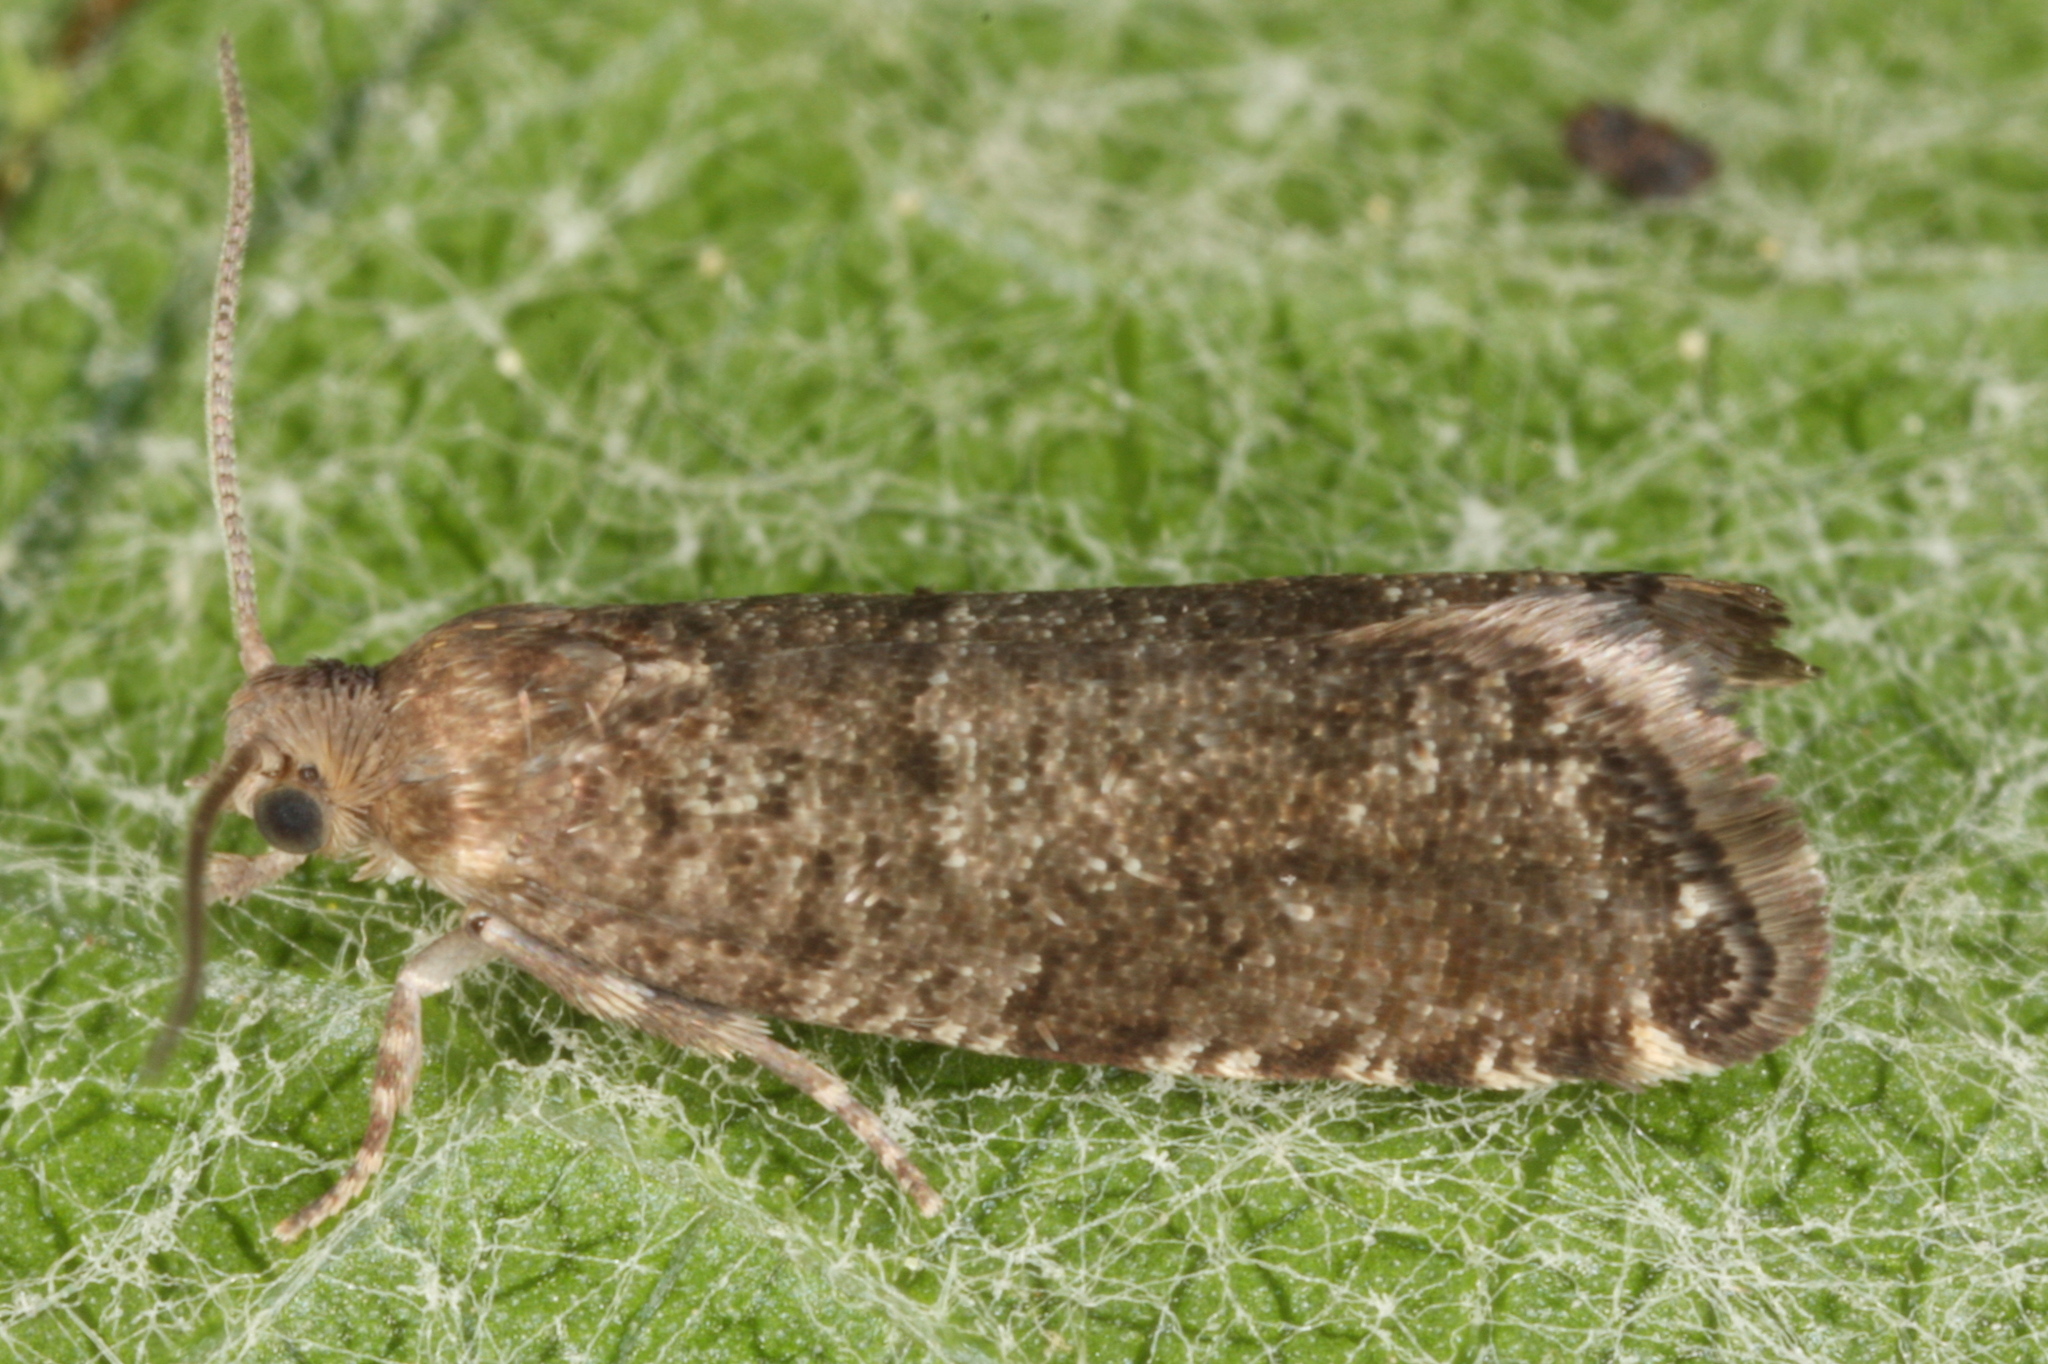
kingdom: Animalia
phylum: Arthropoda
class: Insecta
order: Lepidoptera
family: Tortricidae
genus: Epinotia
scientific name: Epinotia nanana
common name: Leaf roller
